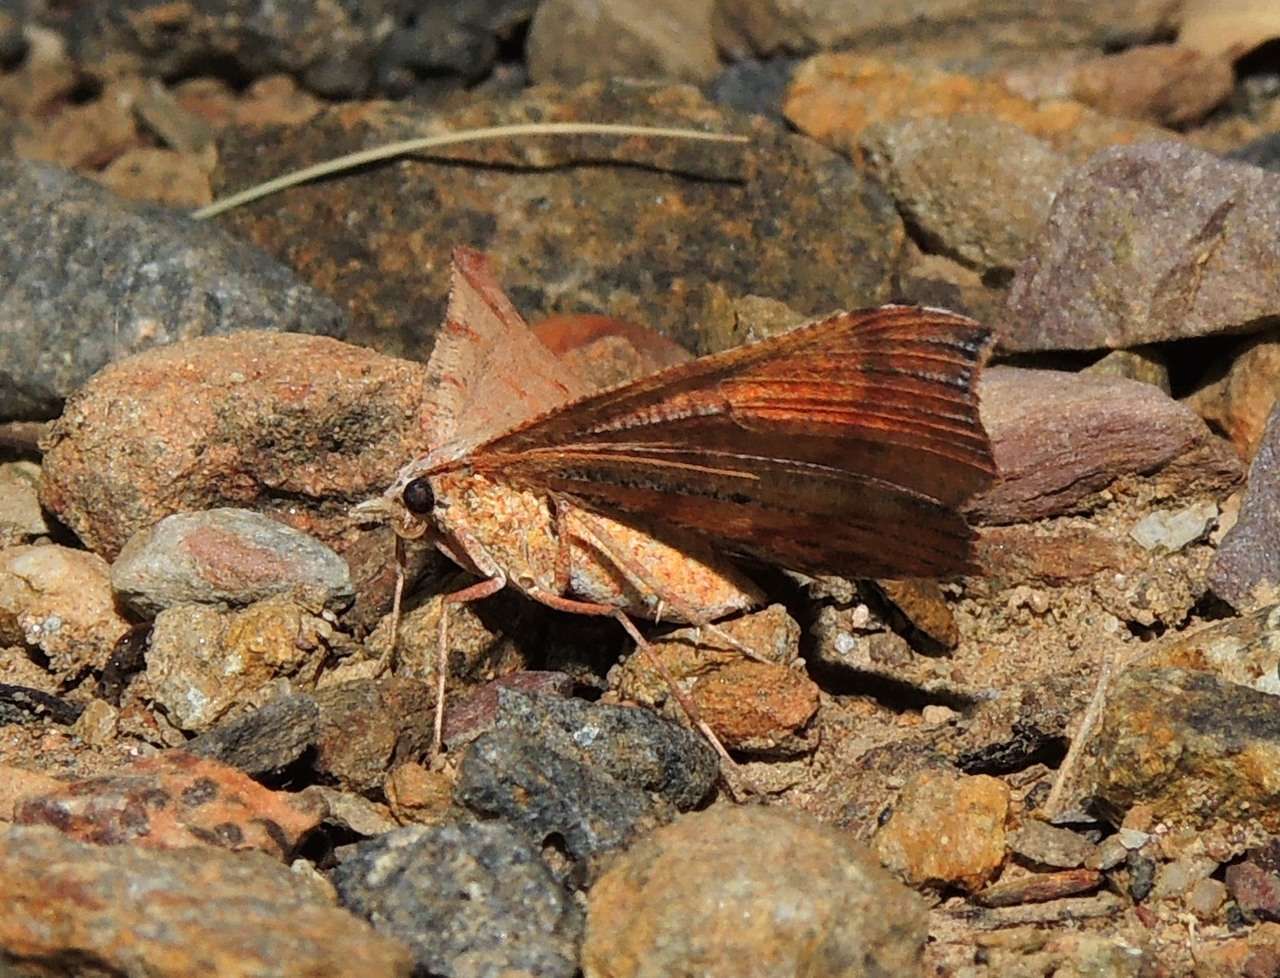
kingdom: Animalia
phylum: Arthropoda
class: Insecta
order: Lepidoptera
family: Geometridae
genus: Rhinodia
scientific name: Rhinodia rostraria
